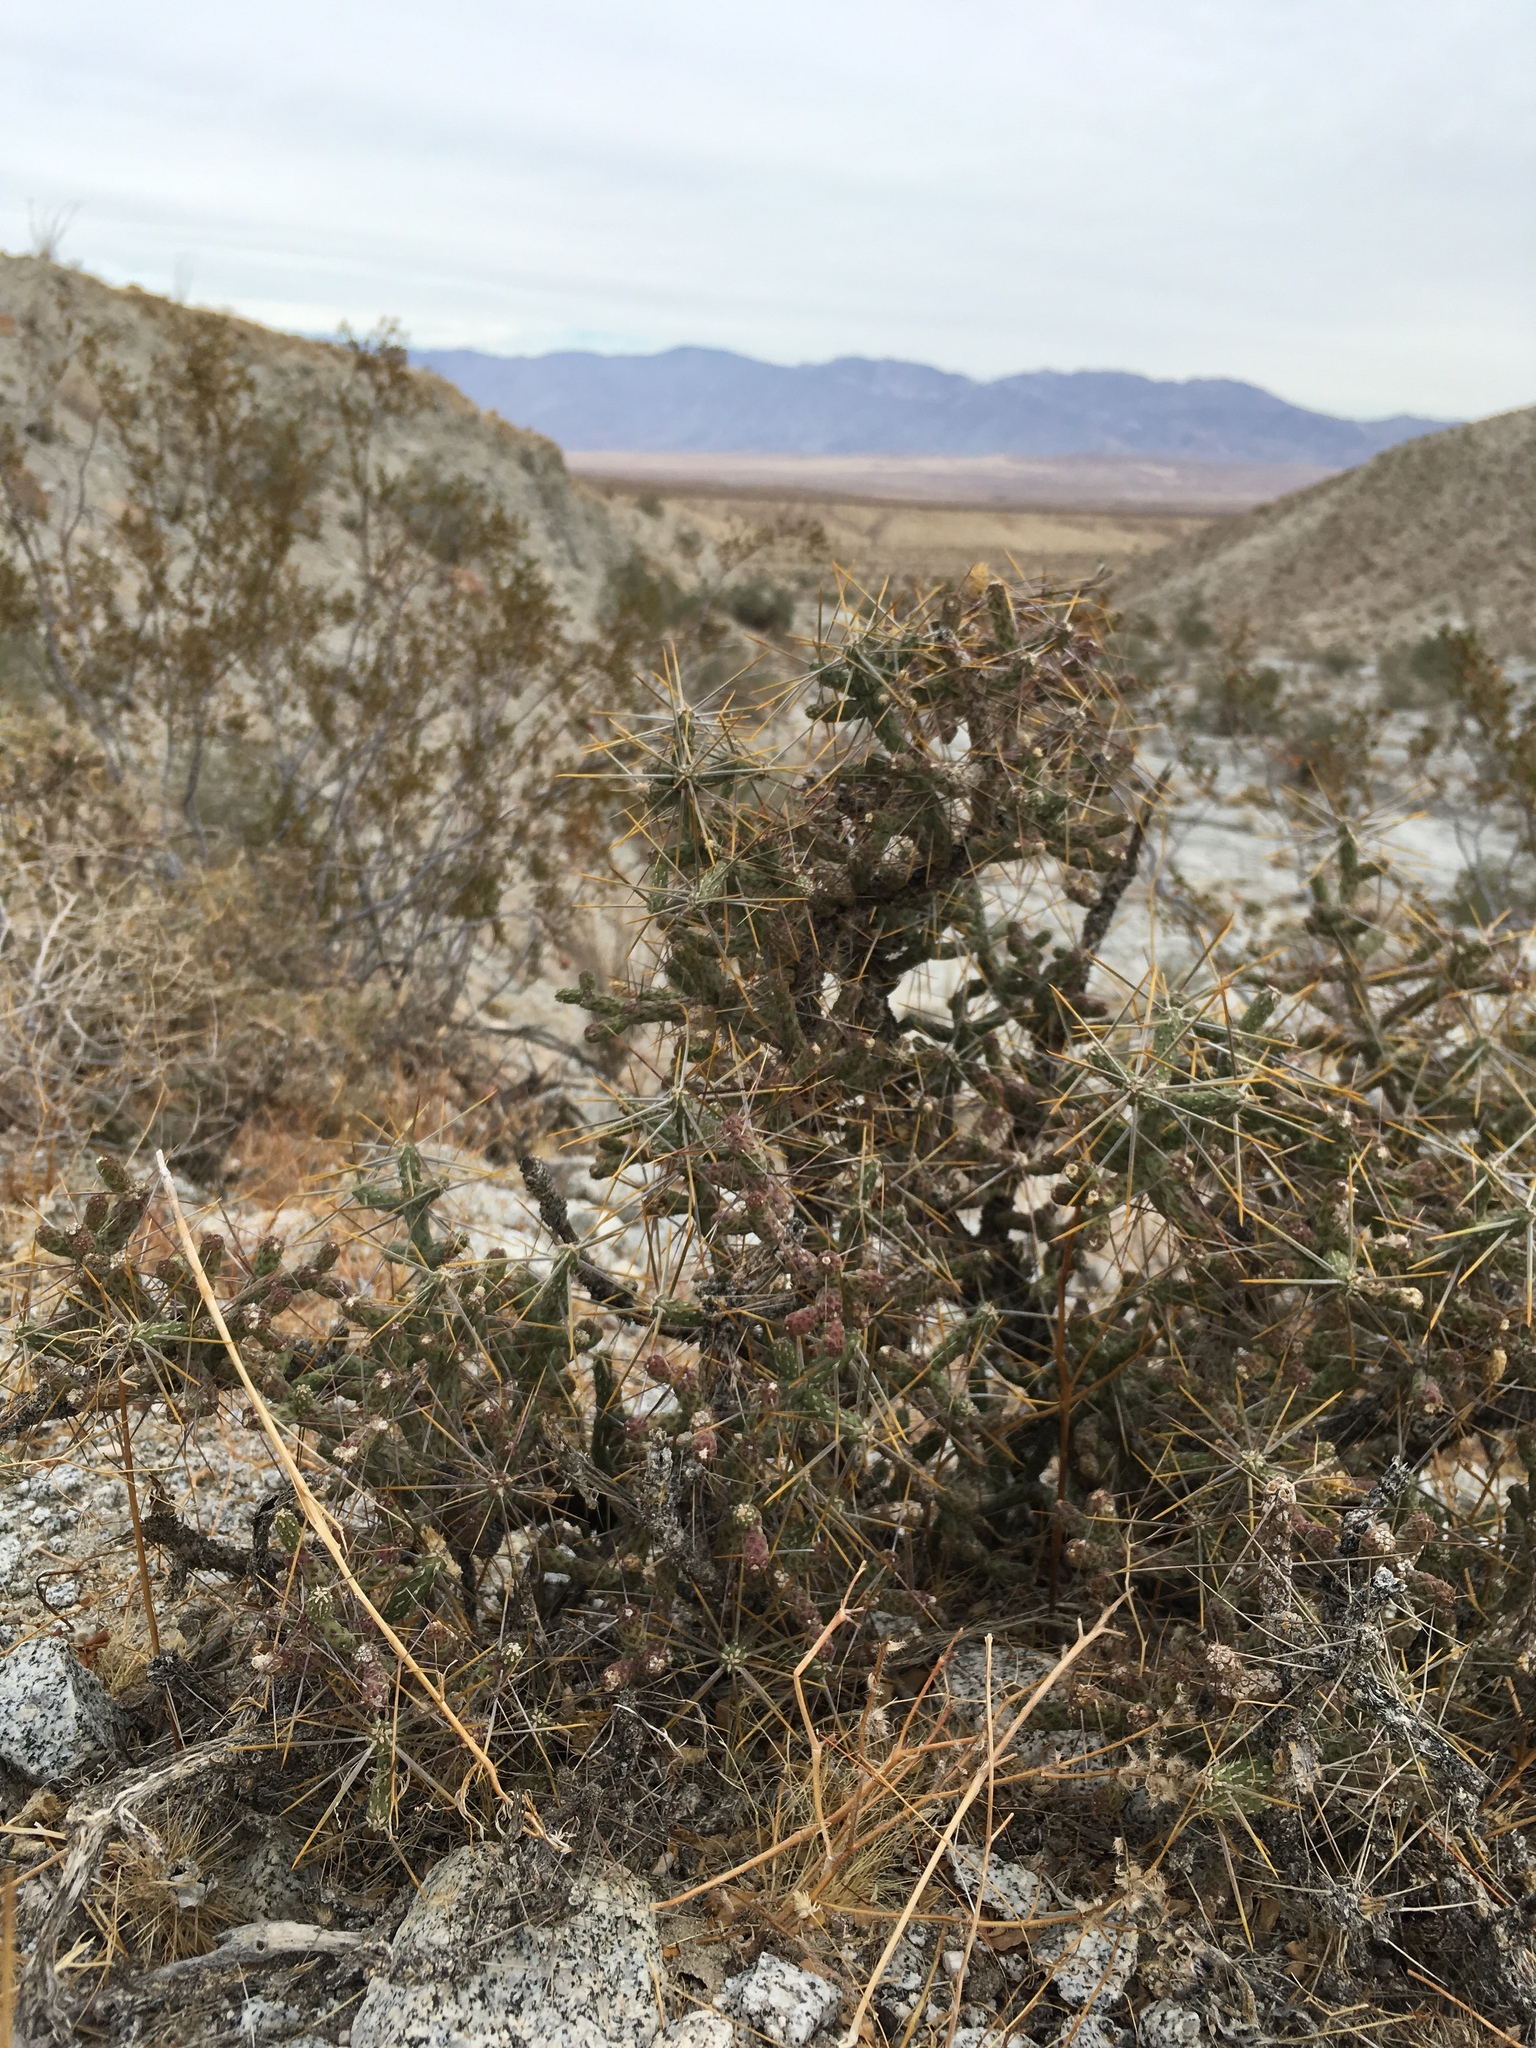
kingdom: Plantae
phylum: Tracheophyta
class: Magnoliopsida
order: Caryophyllales
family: Cactaceae
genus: Cylindropuntia
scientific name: Cylindropuntia ramosissima
